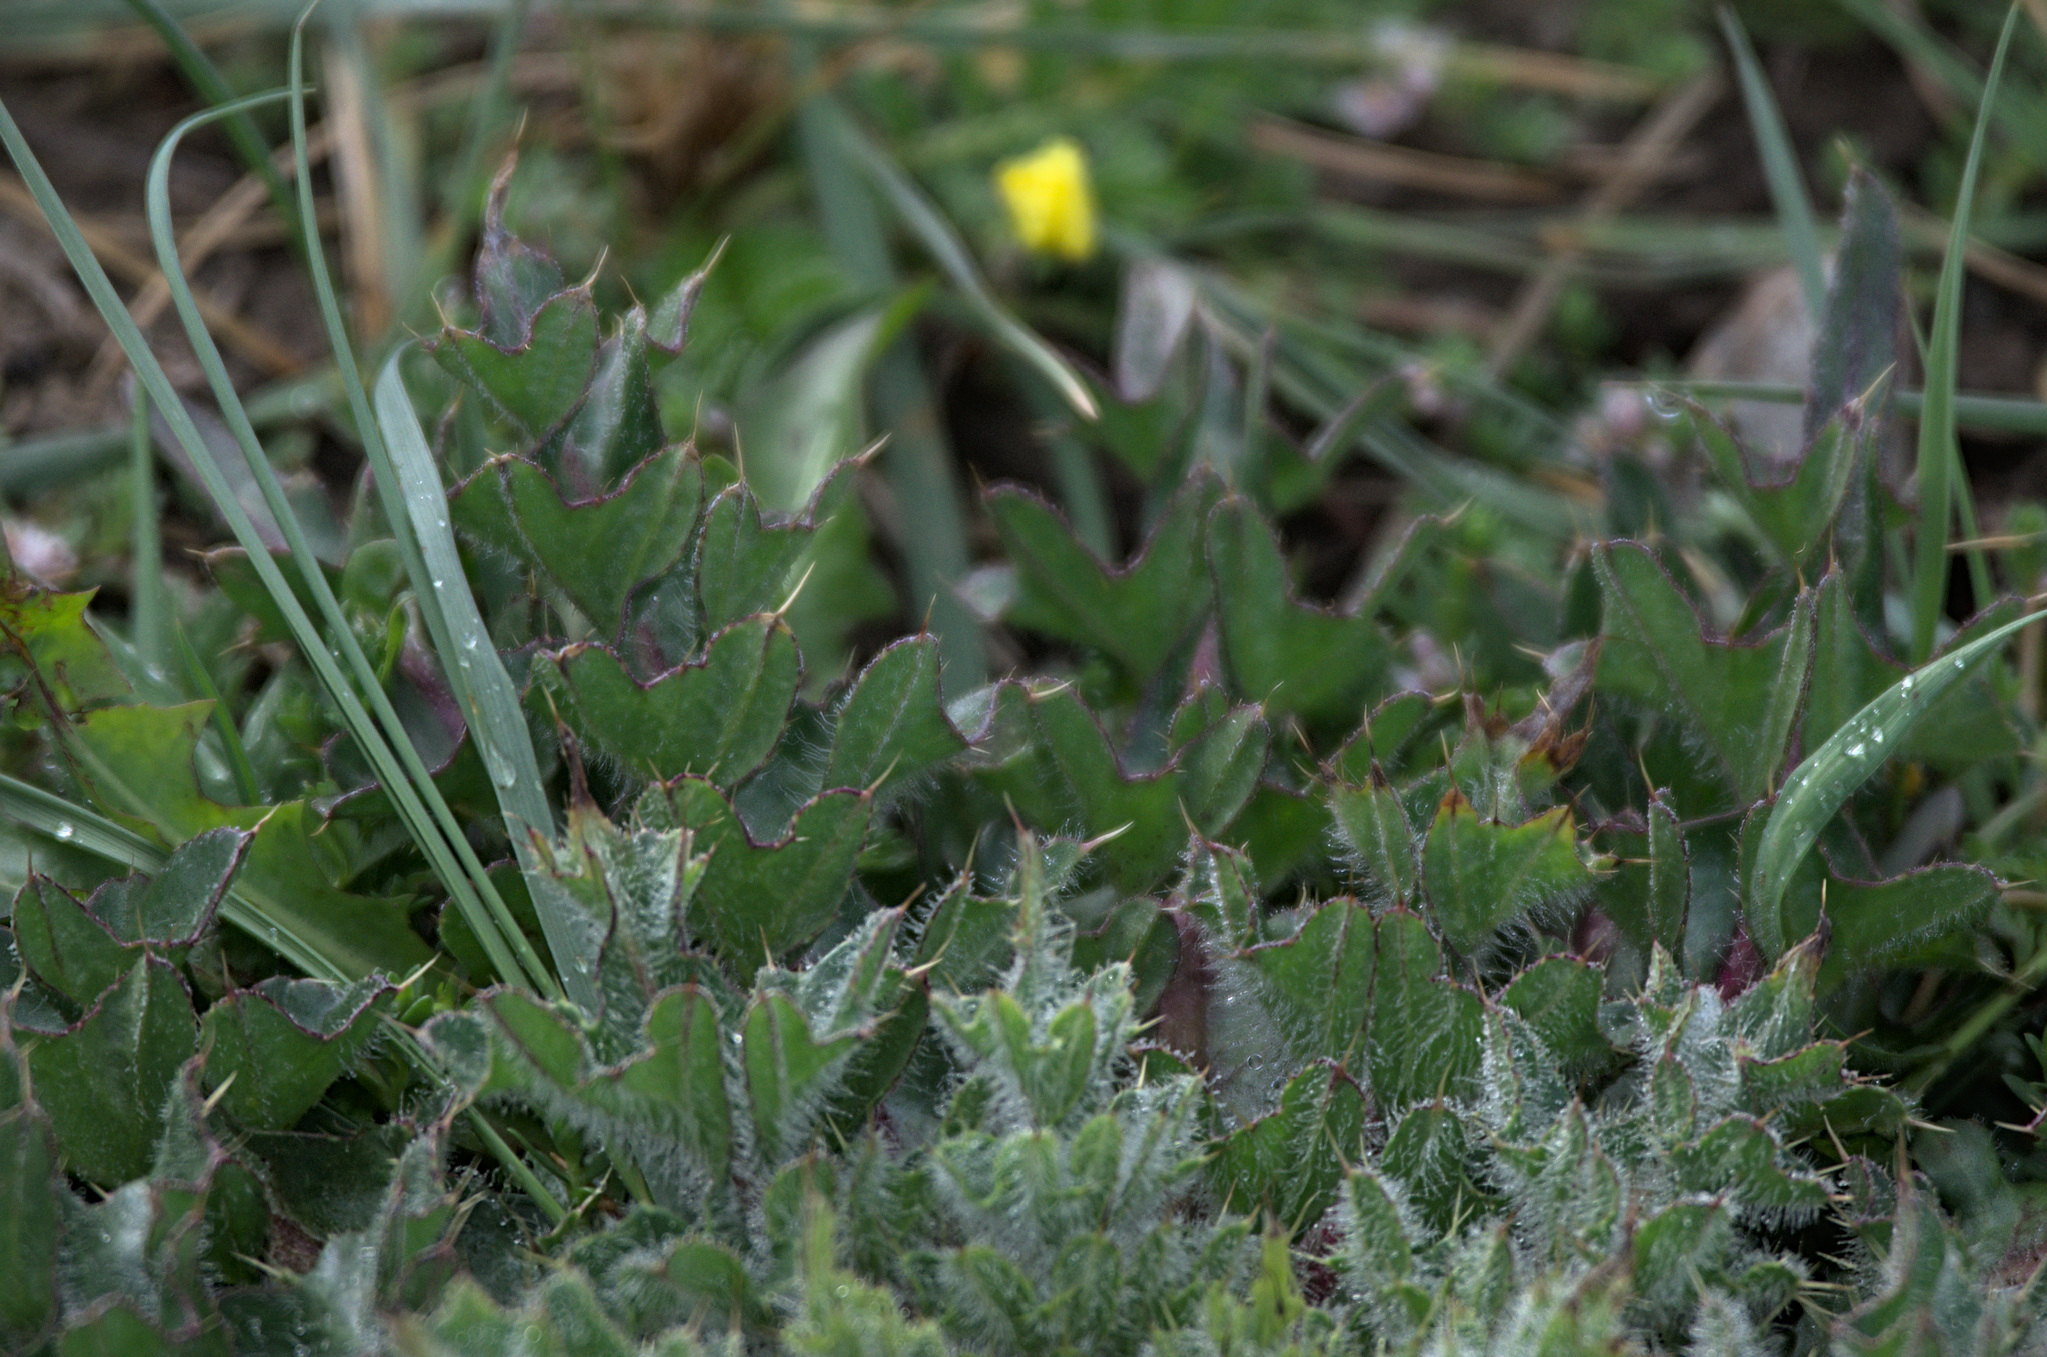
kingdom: Plantae
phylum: Tracheophyta
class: Magnoliopsida
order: Asterales
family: Asteraceae
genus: Cirsium
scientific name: Cirsium esculentum
